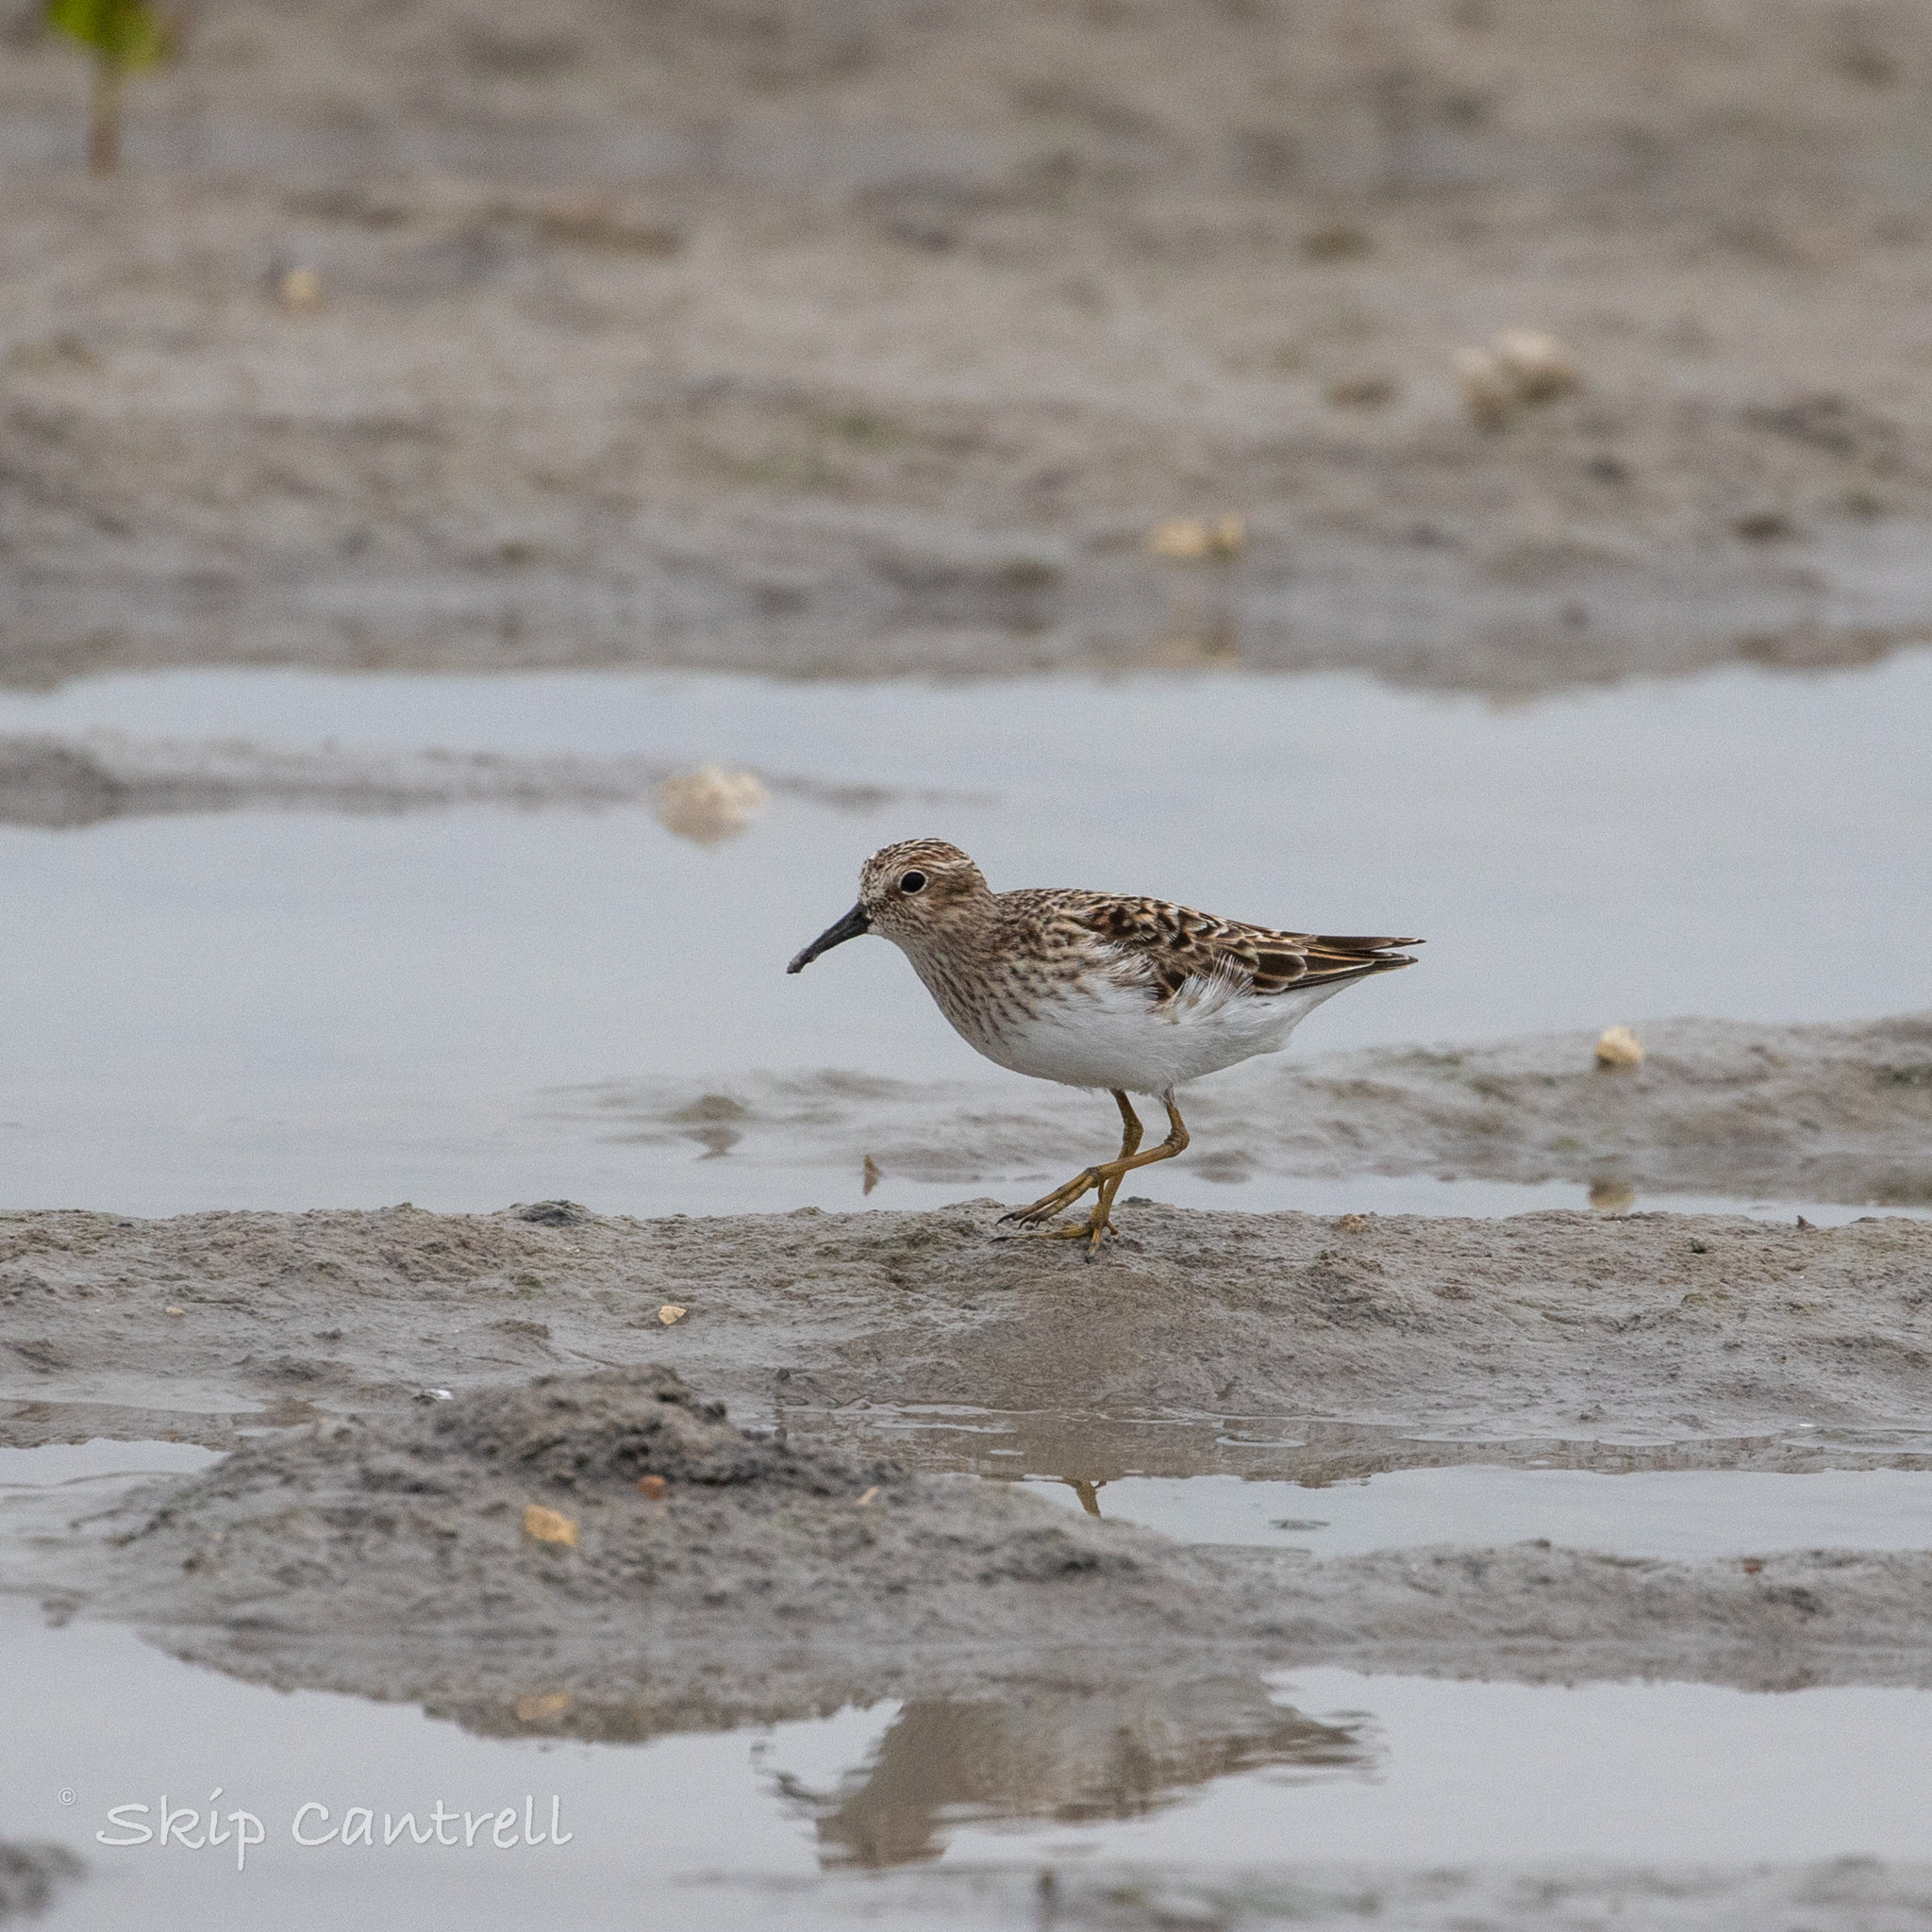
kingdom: Animalia
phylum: Chordata
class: Aves
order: Charadriiformes
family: Scolopacidae
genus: Calidris
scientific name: Calidris minutilla
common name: Least sandpiper
